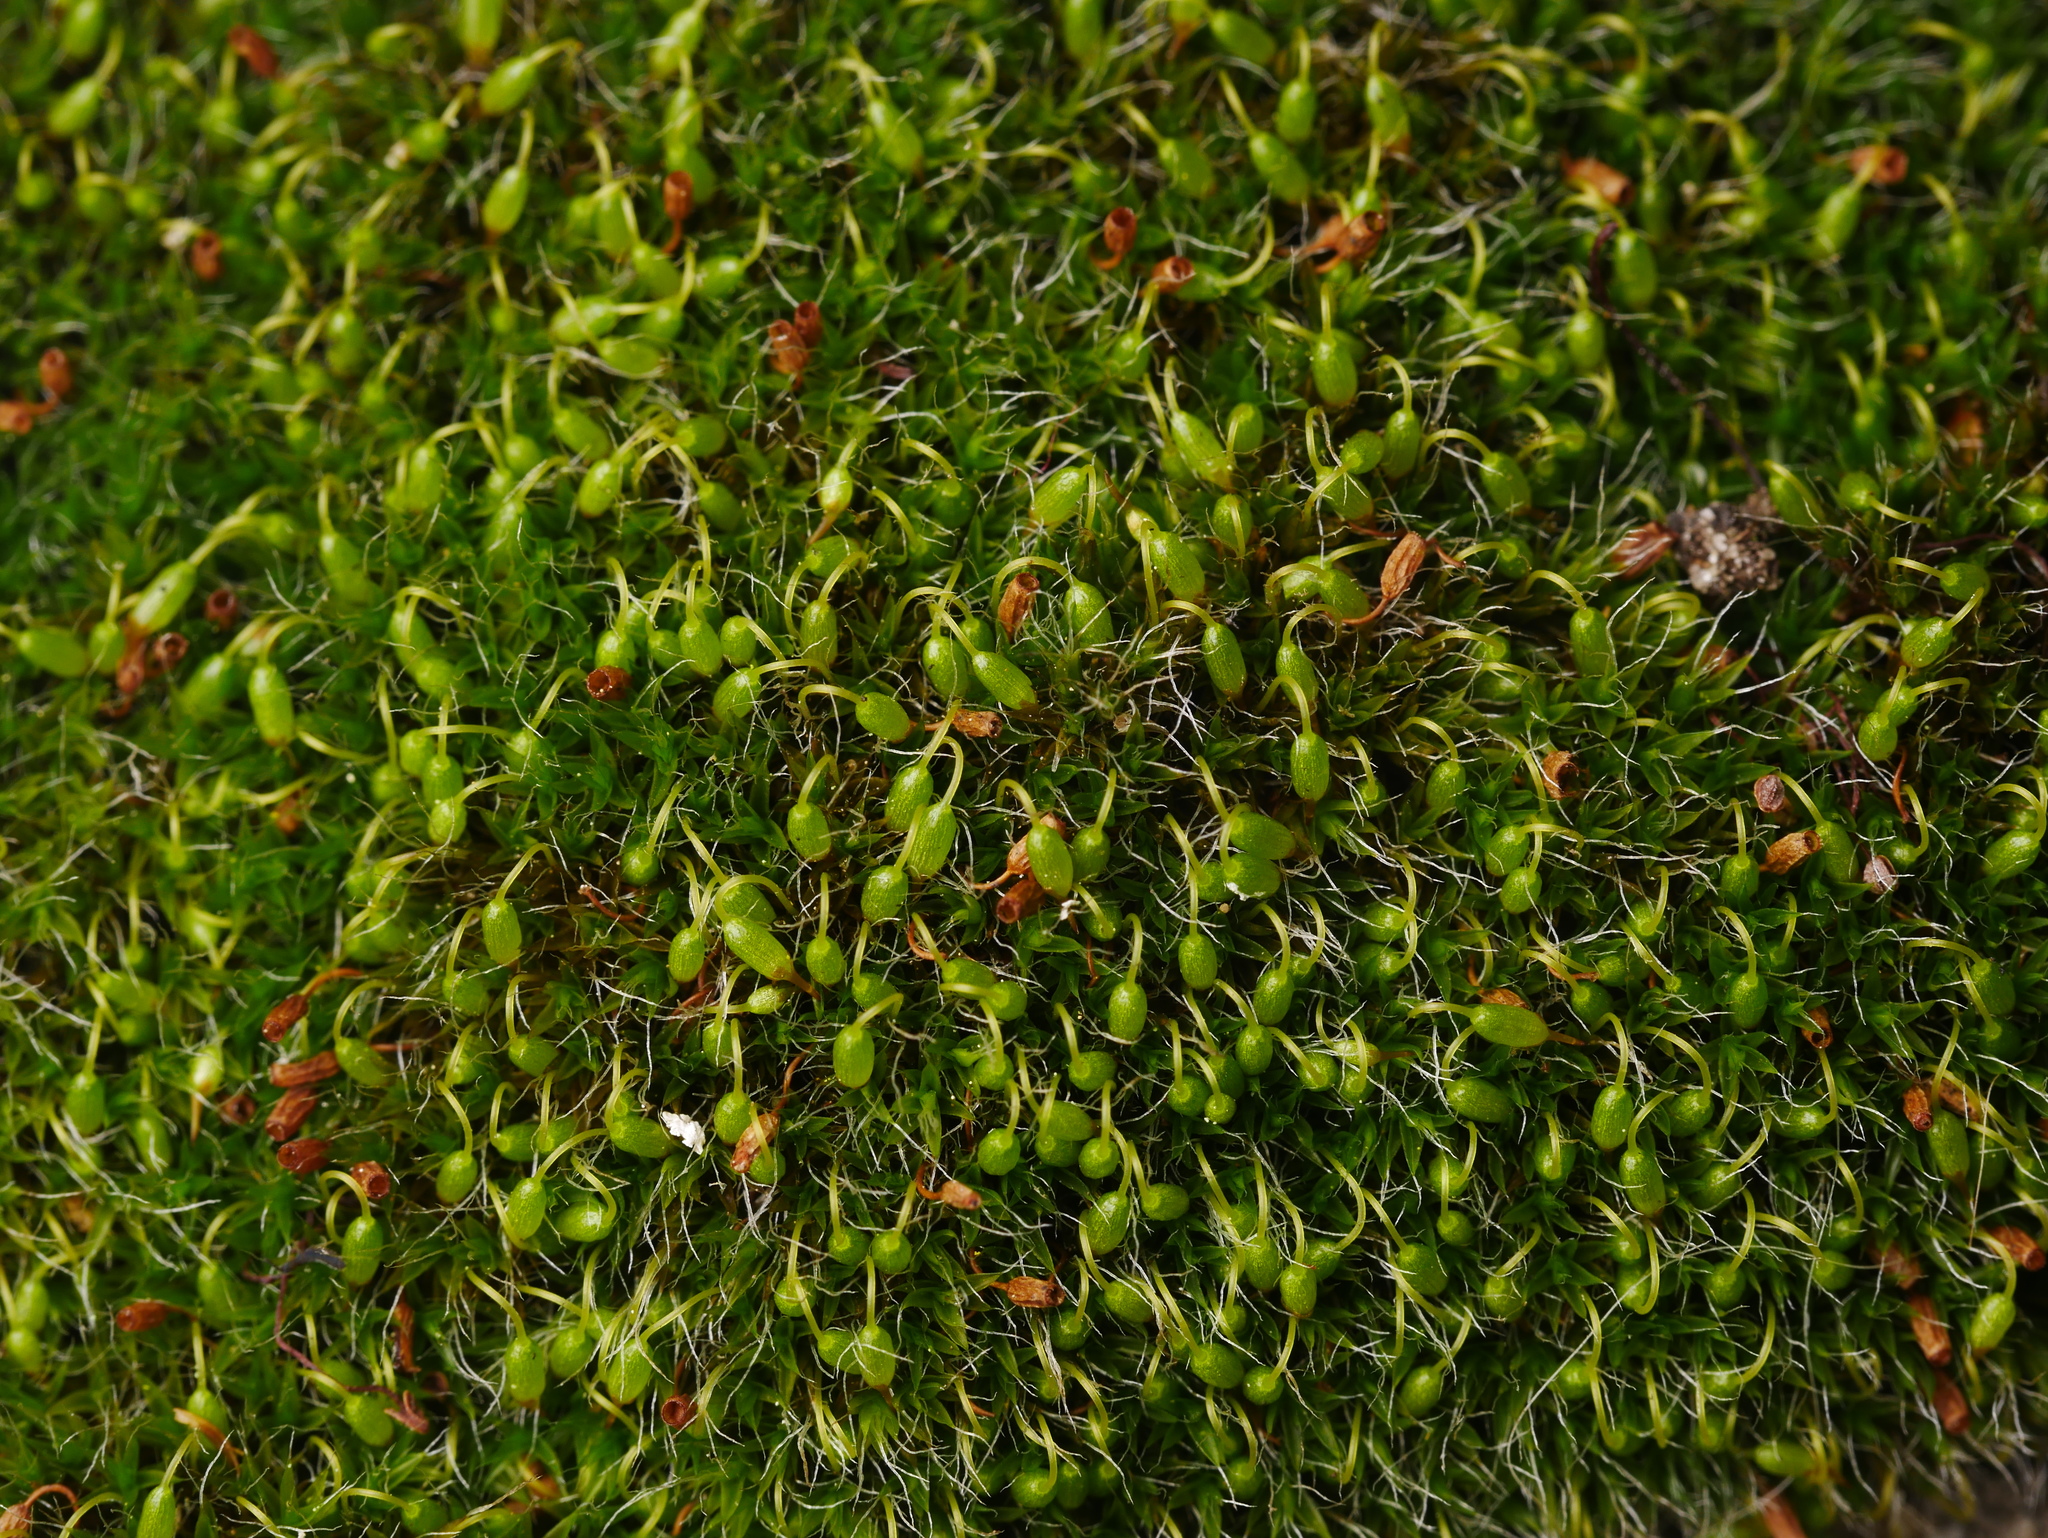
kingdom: Plantae
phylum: Bryophyta
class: Bryopsida
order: Grimmiales
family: Grimmiaceae
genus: Grimmia
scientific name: Grimmia pulvinata
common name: Grey-cushioned grimmia
